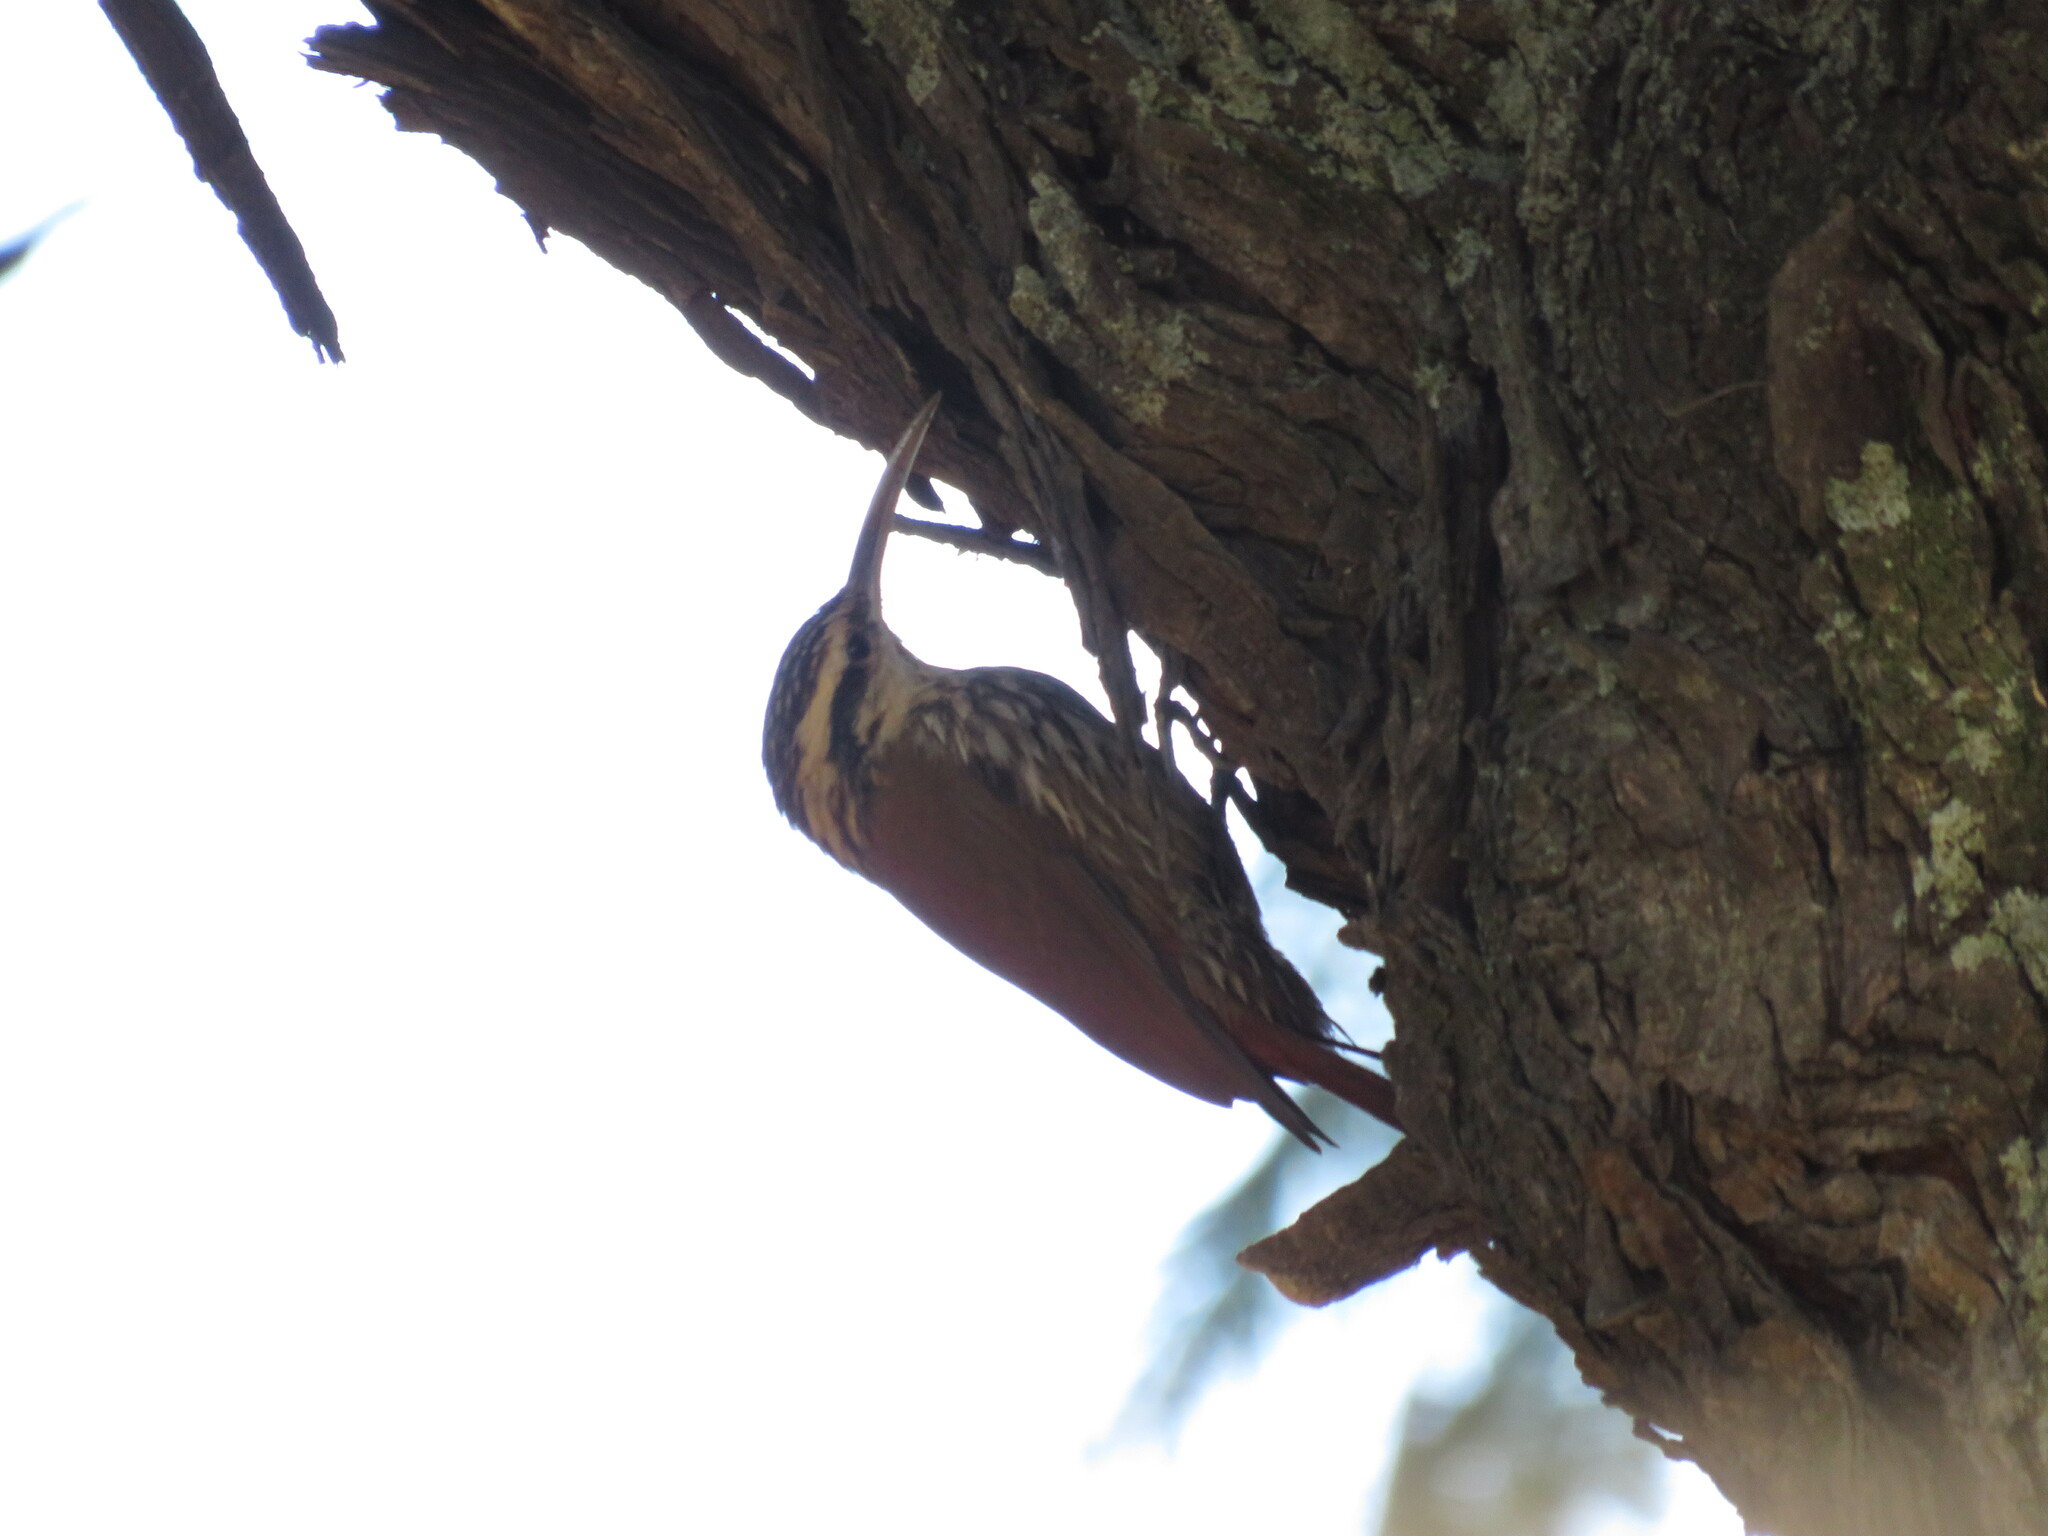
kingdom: Animalia
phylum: Chordata
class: Aves
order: Passeriformes
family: Furnariidae
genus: Lepidocolaptes
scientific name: Lepidocolaptes angustirostris
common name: Narrow-billed woodcreeper
